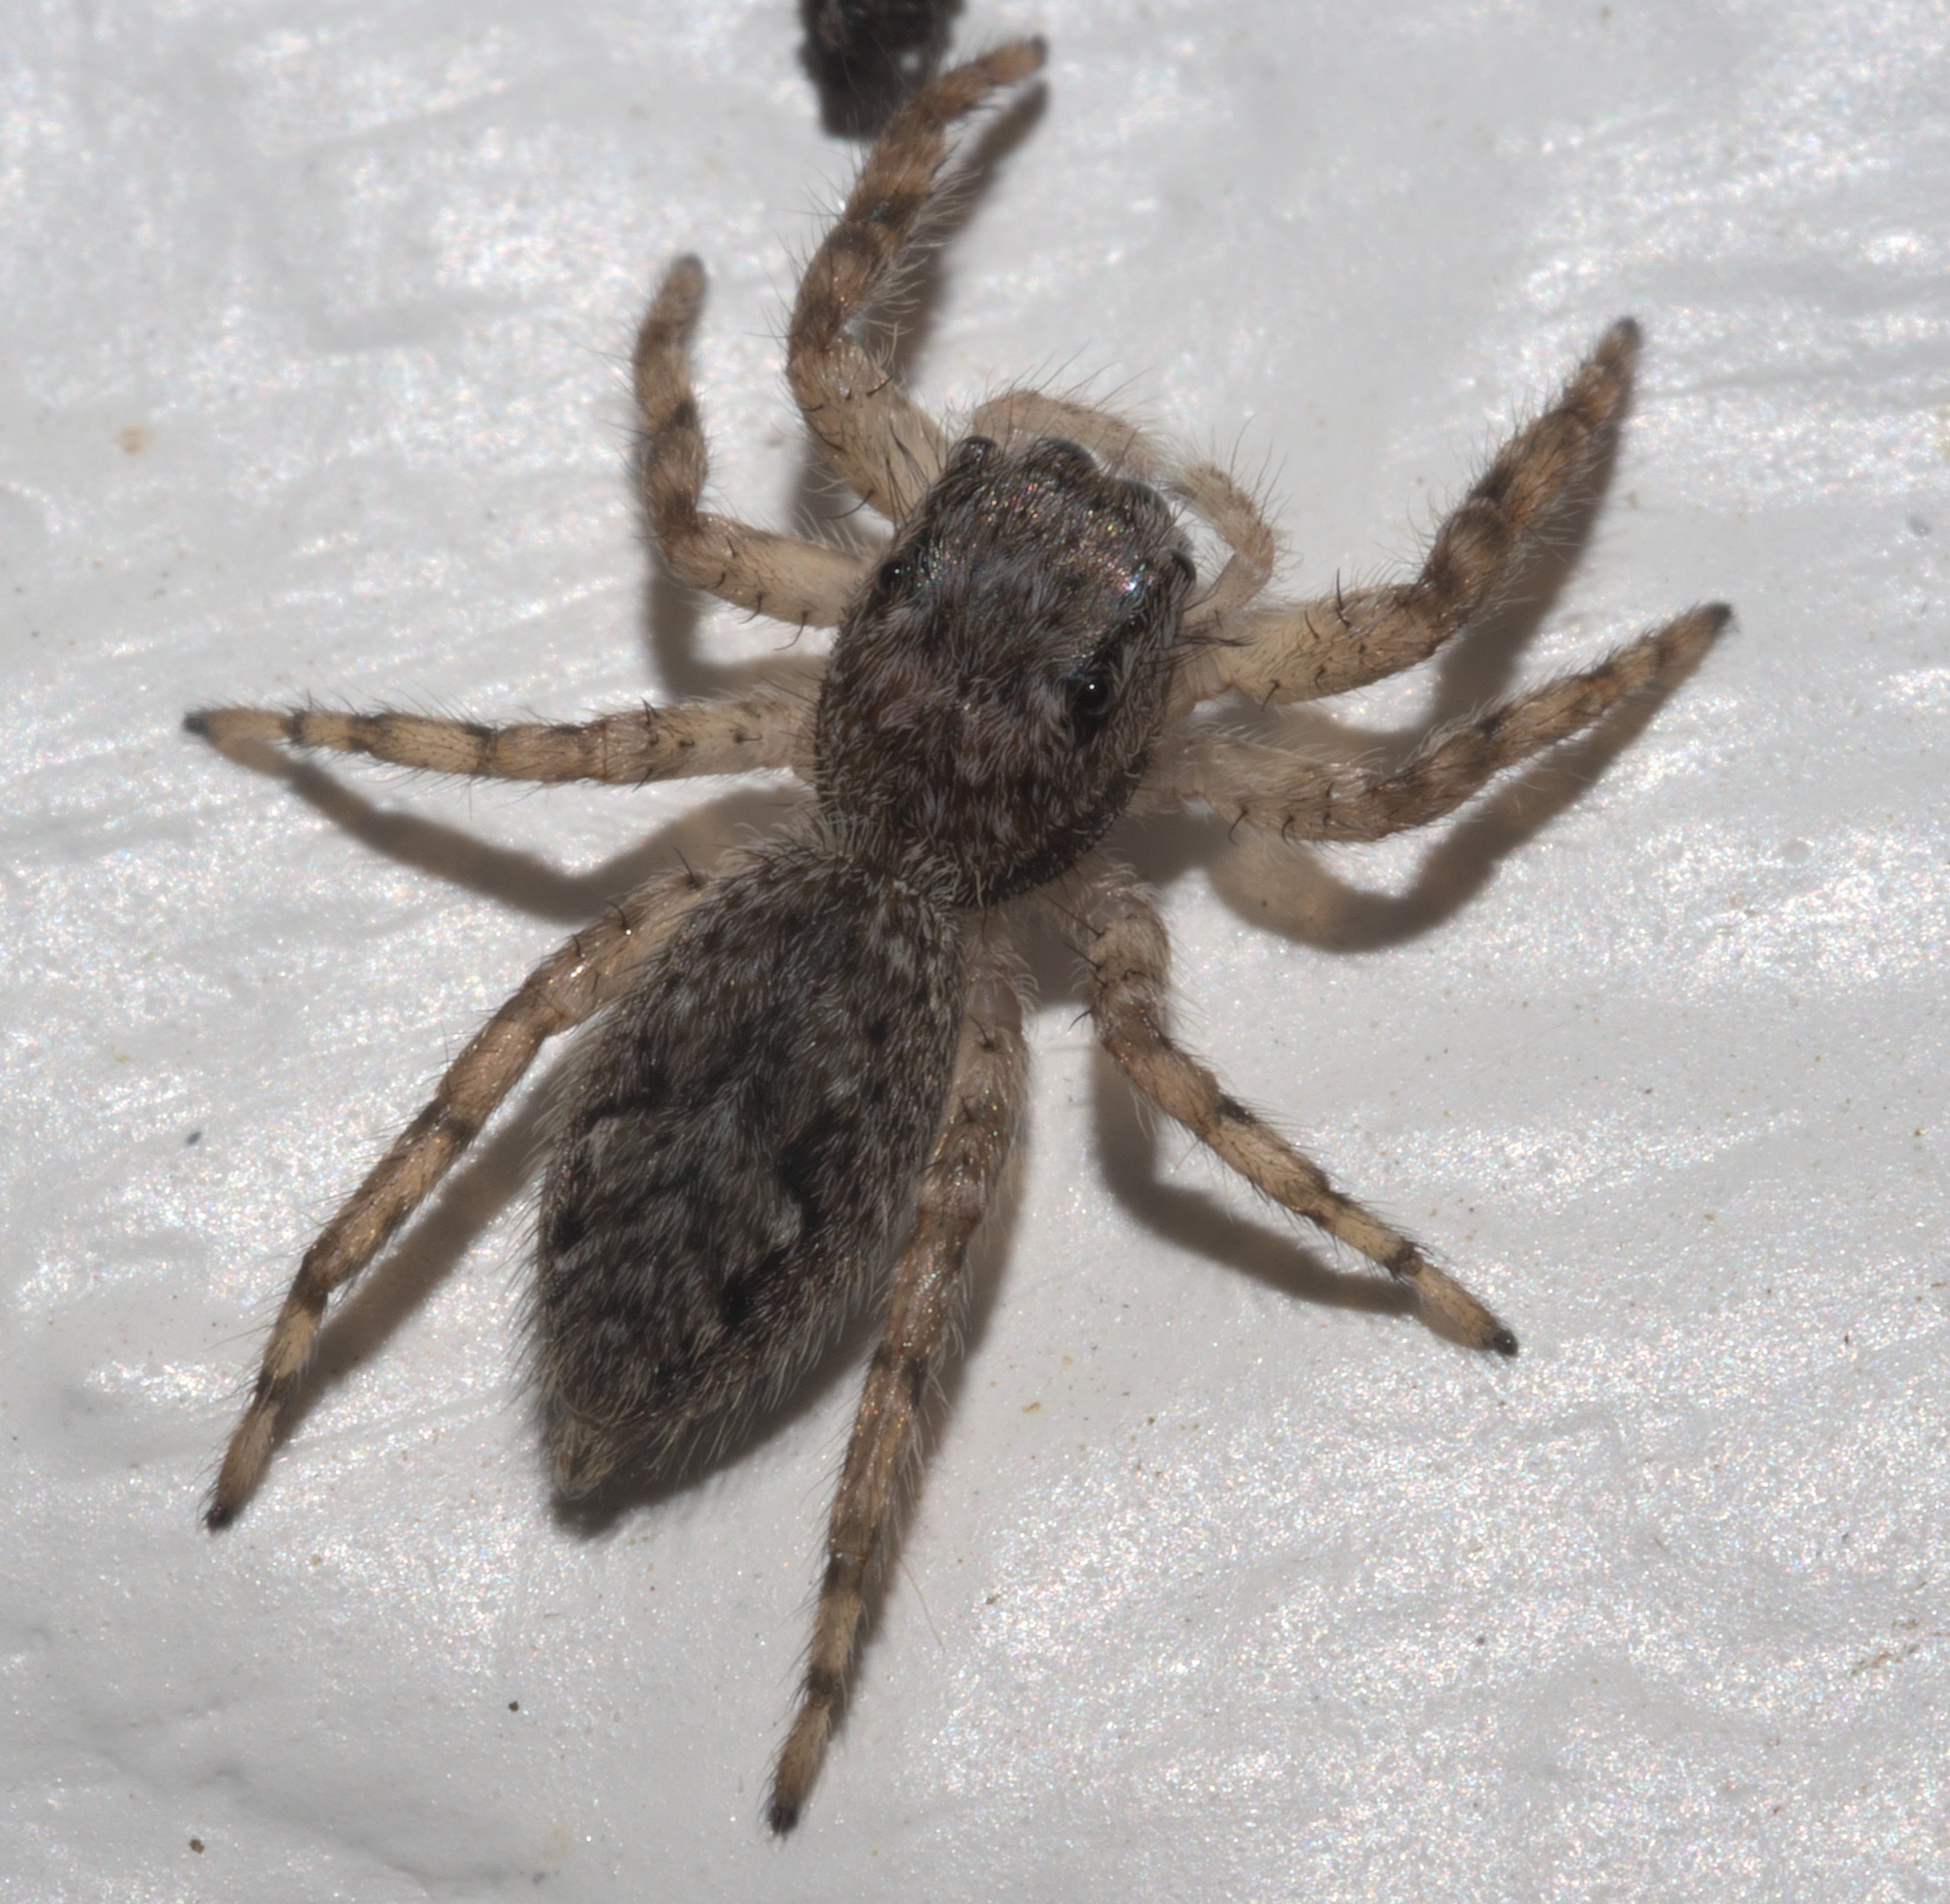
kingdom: Animalia
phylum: Arthropoda
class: Arachnida
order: Araneae
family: Salticidae
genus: Platycryptus
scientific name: Platycryptus undatus
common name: Tan jumping spider
